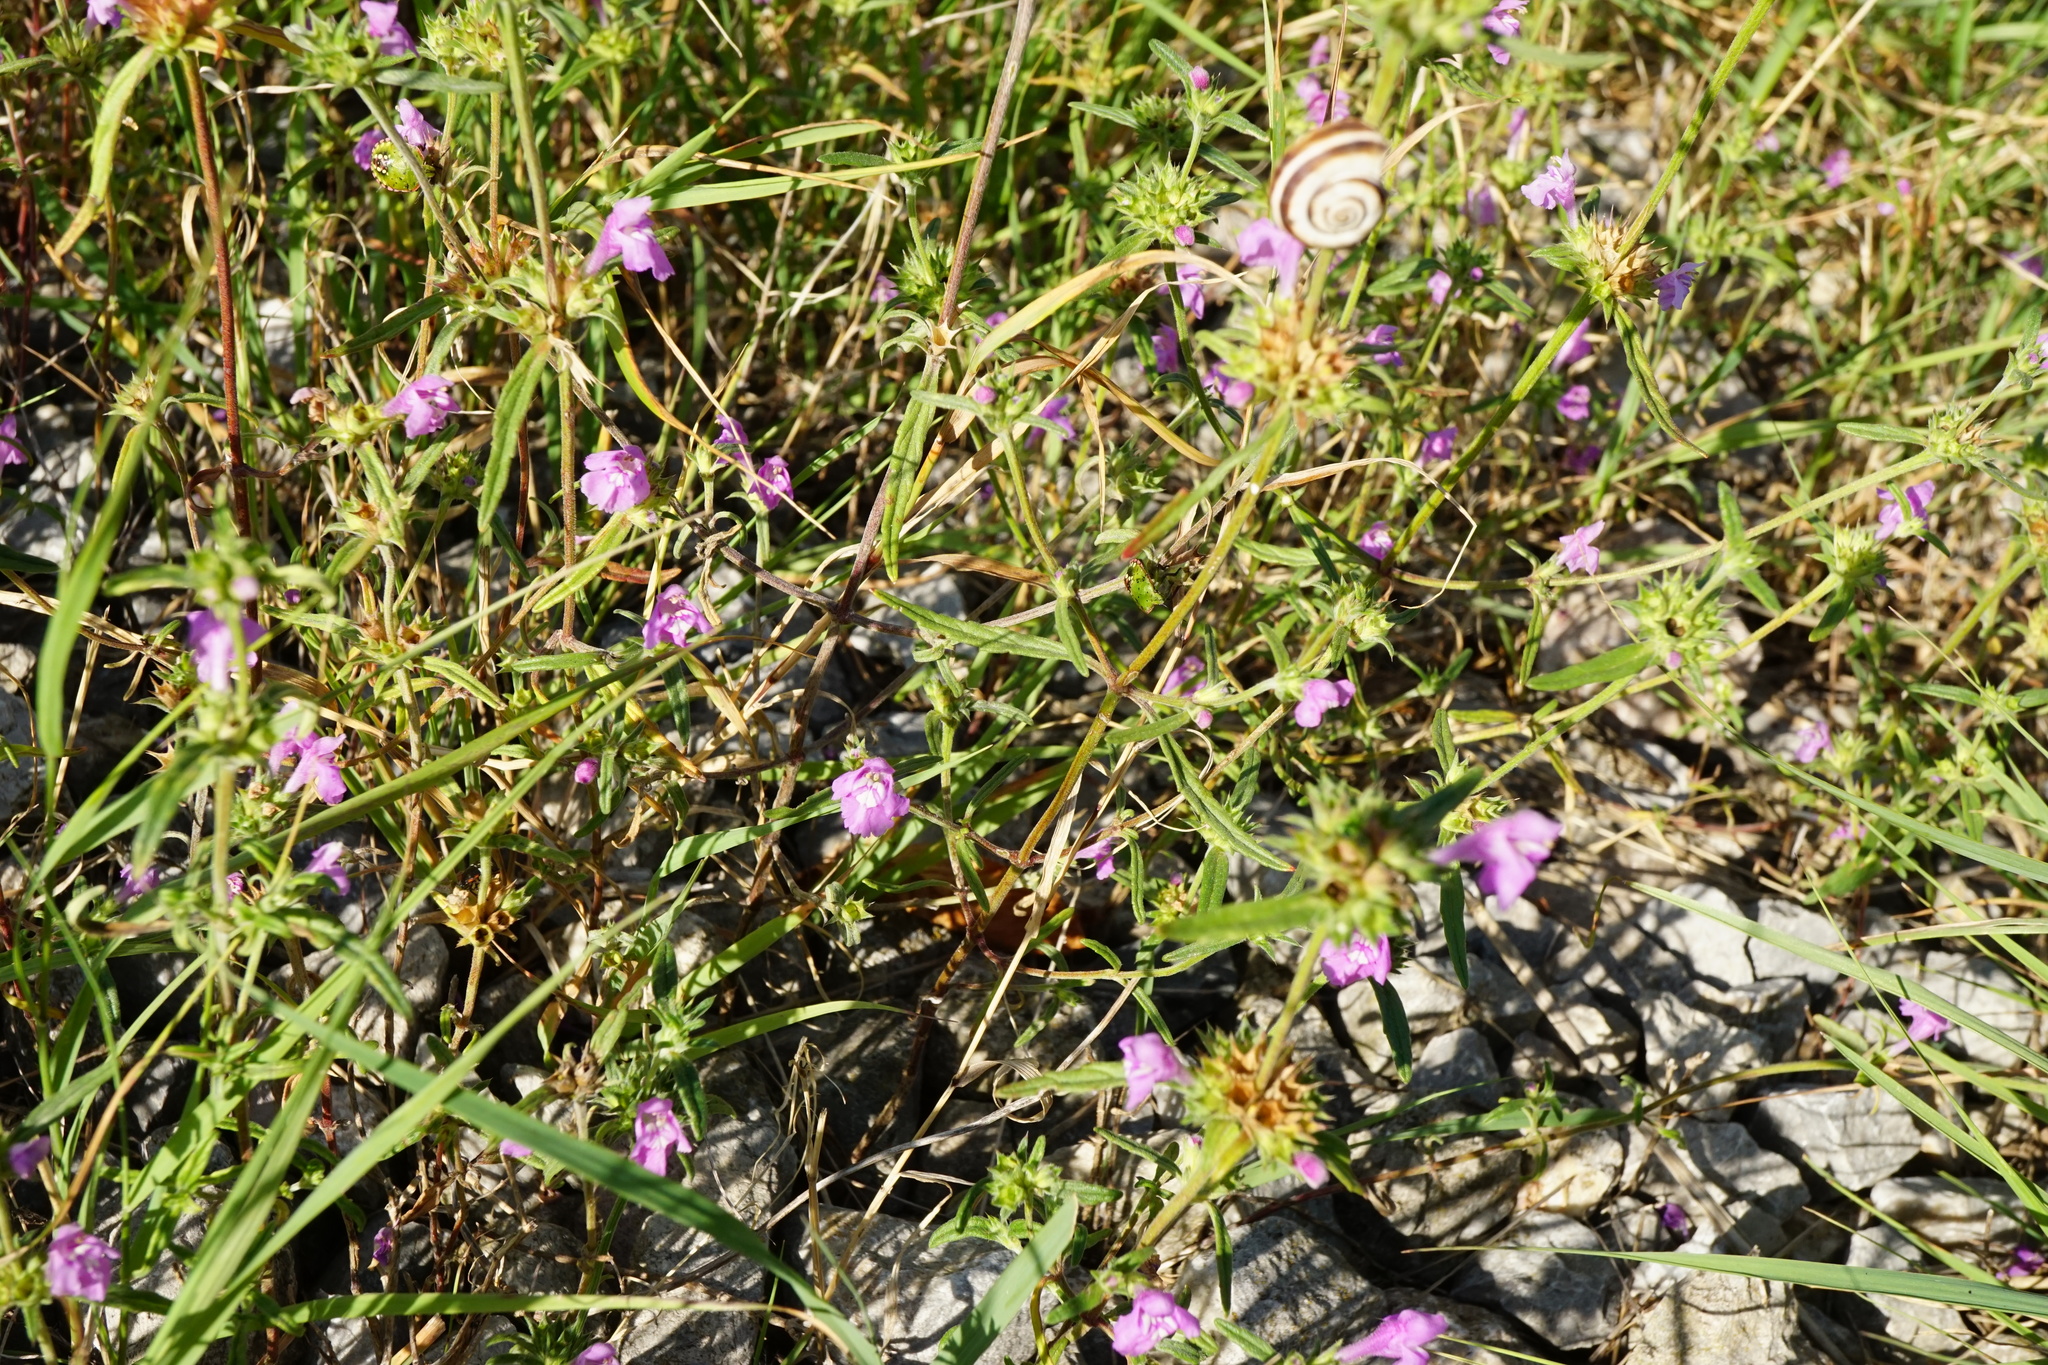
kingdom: Plantae
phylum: Tracheophyta
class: Magnoliopsida
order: Lamiales
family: Lamiaceae
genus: Galeopsis
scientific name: Galeopsis angustifolia
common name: Red hemp-nettle
